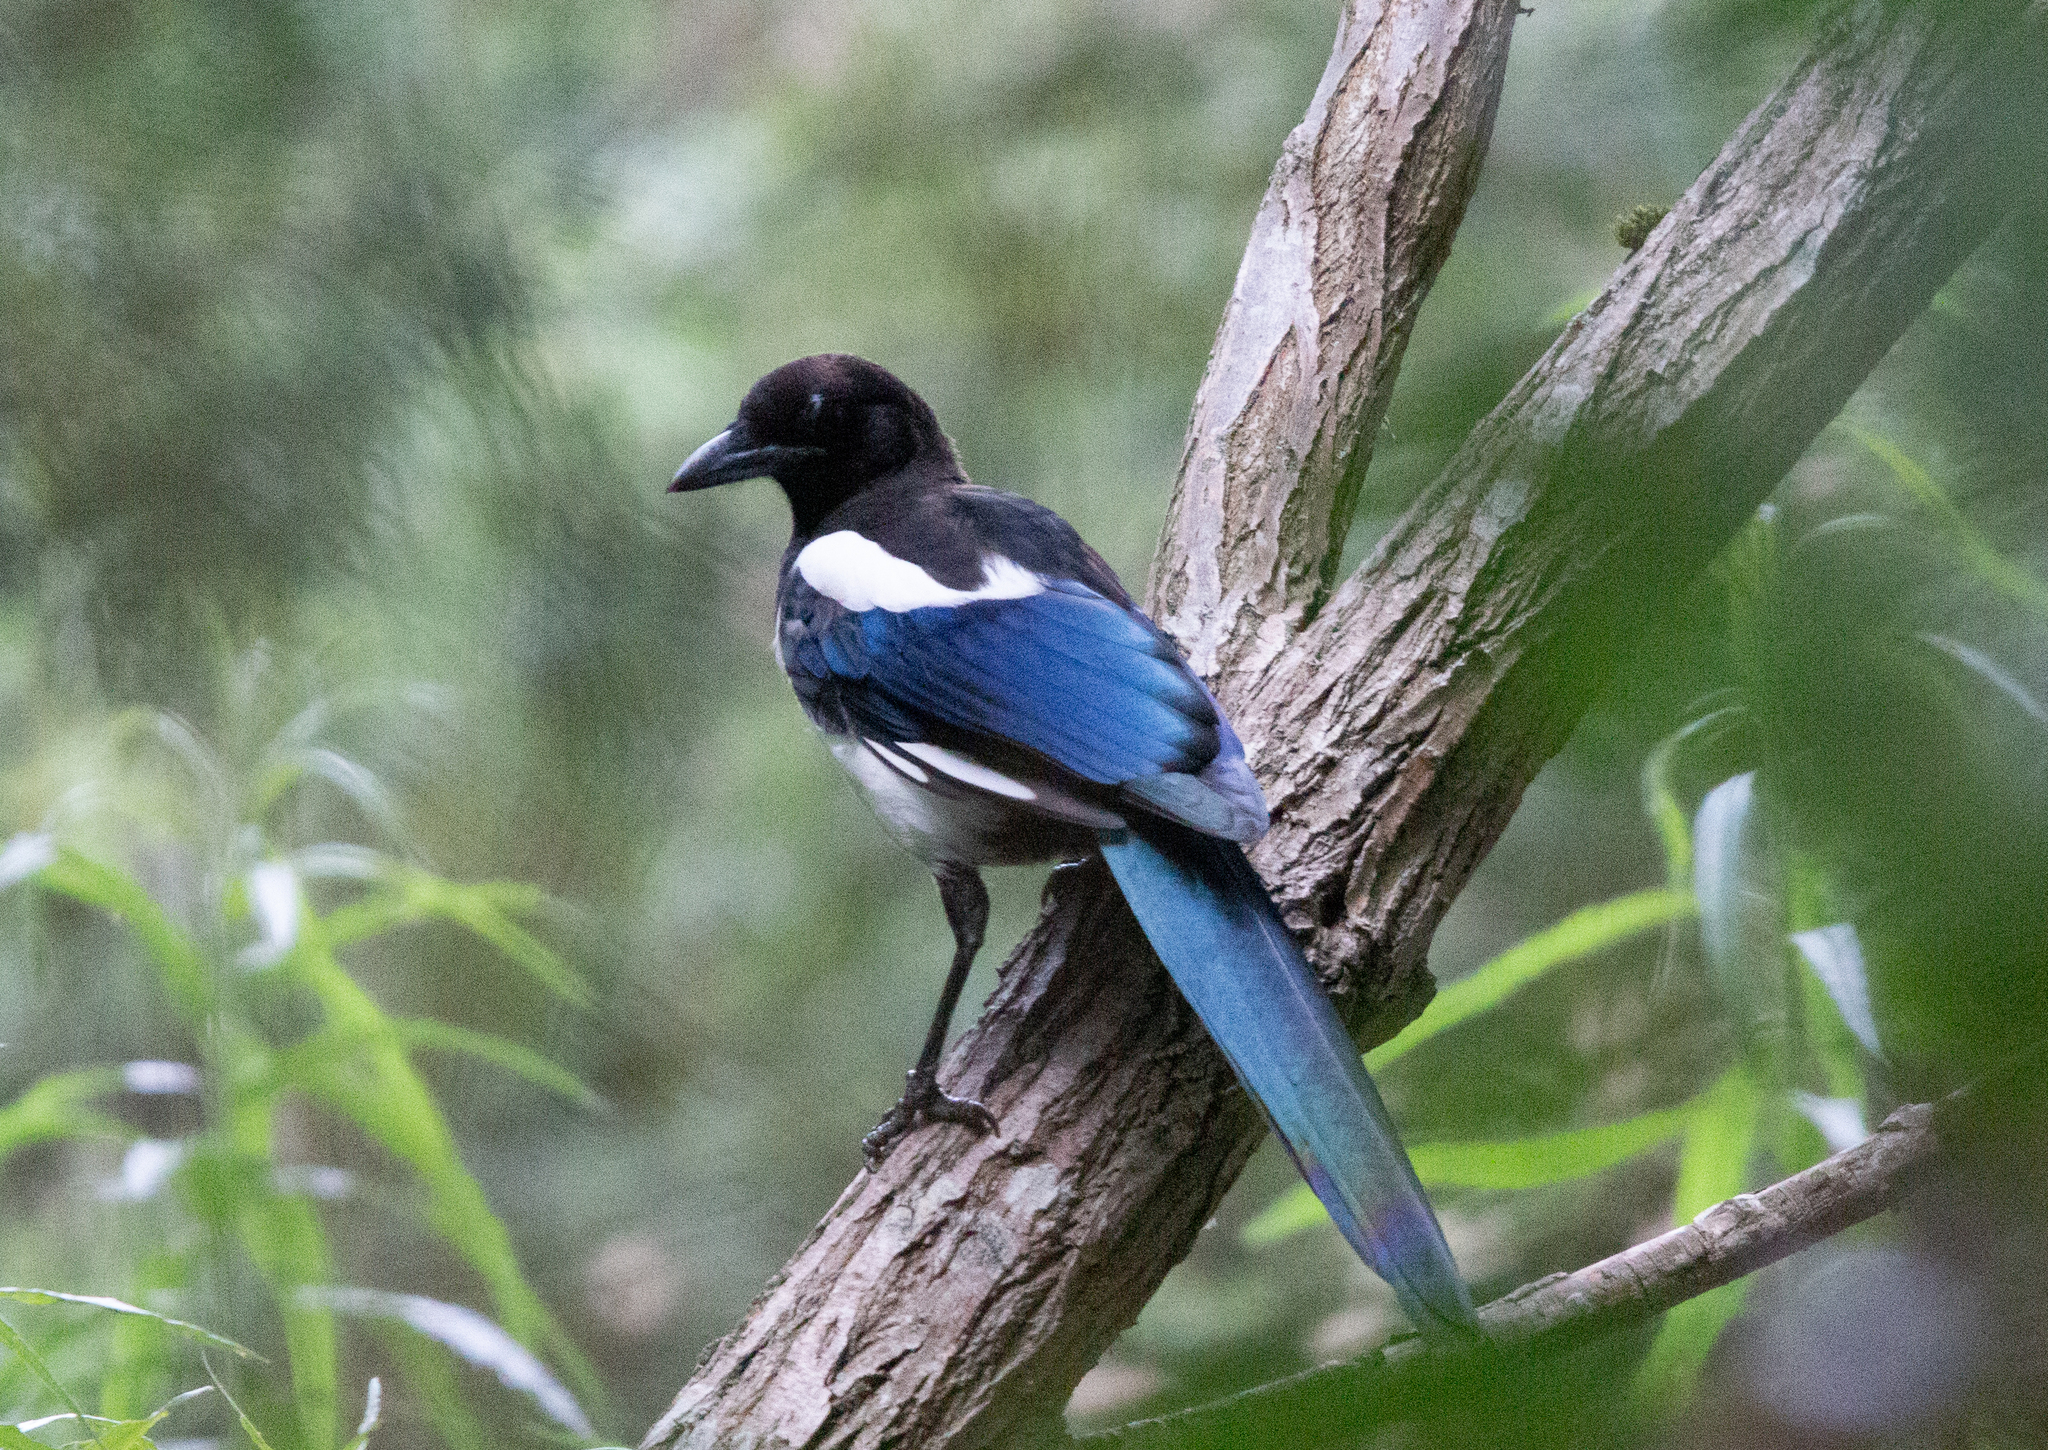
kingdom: Animalia
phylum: Chordata
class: Aves
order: Passeriformes
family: Corvidae
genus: Pica
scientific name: Pica pica
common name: Eurasian magpie
